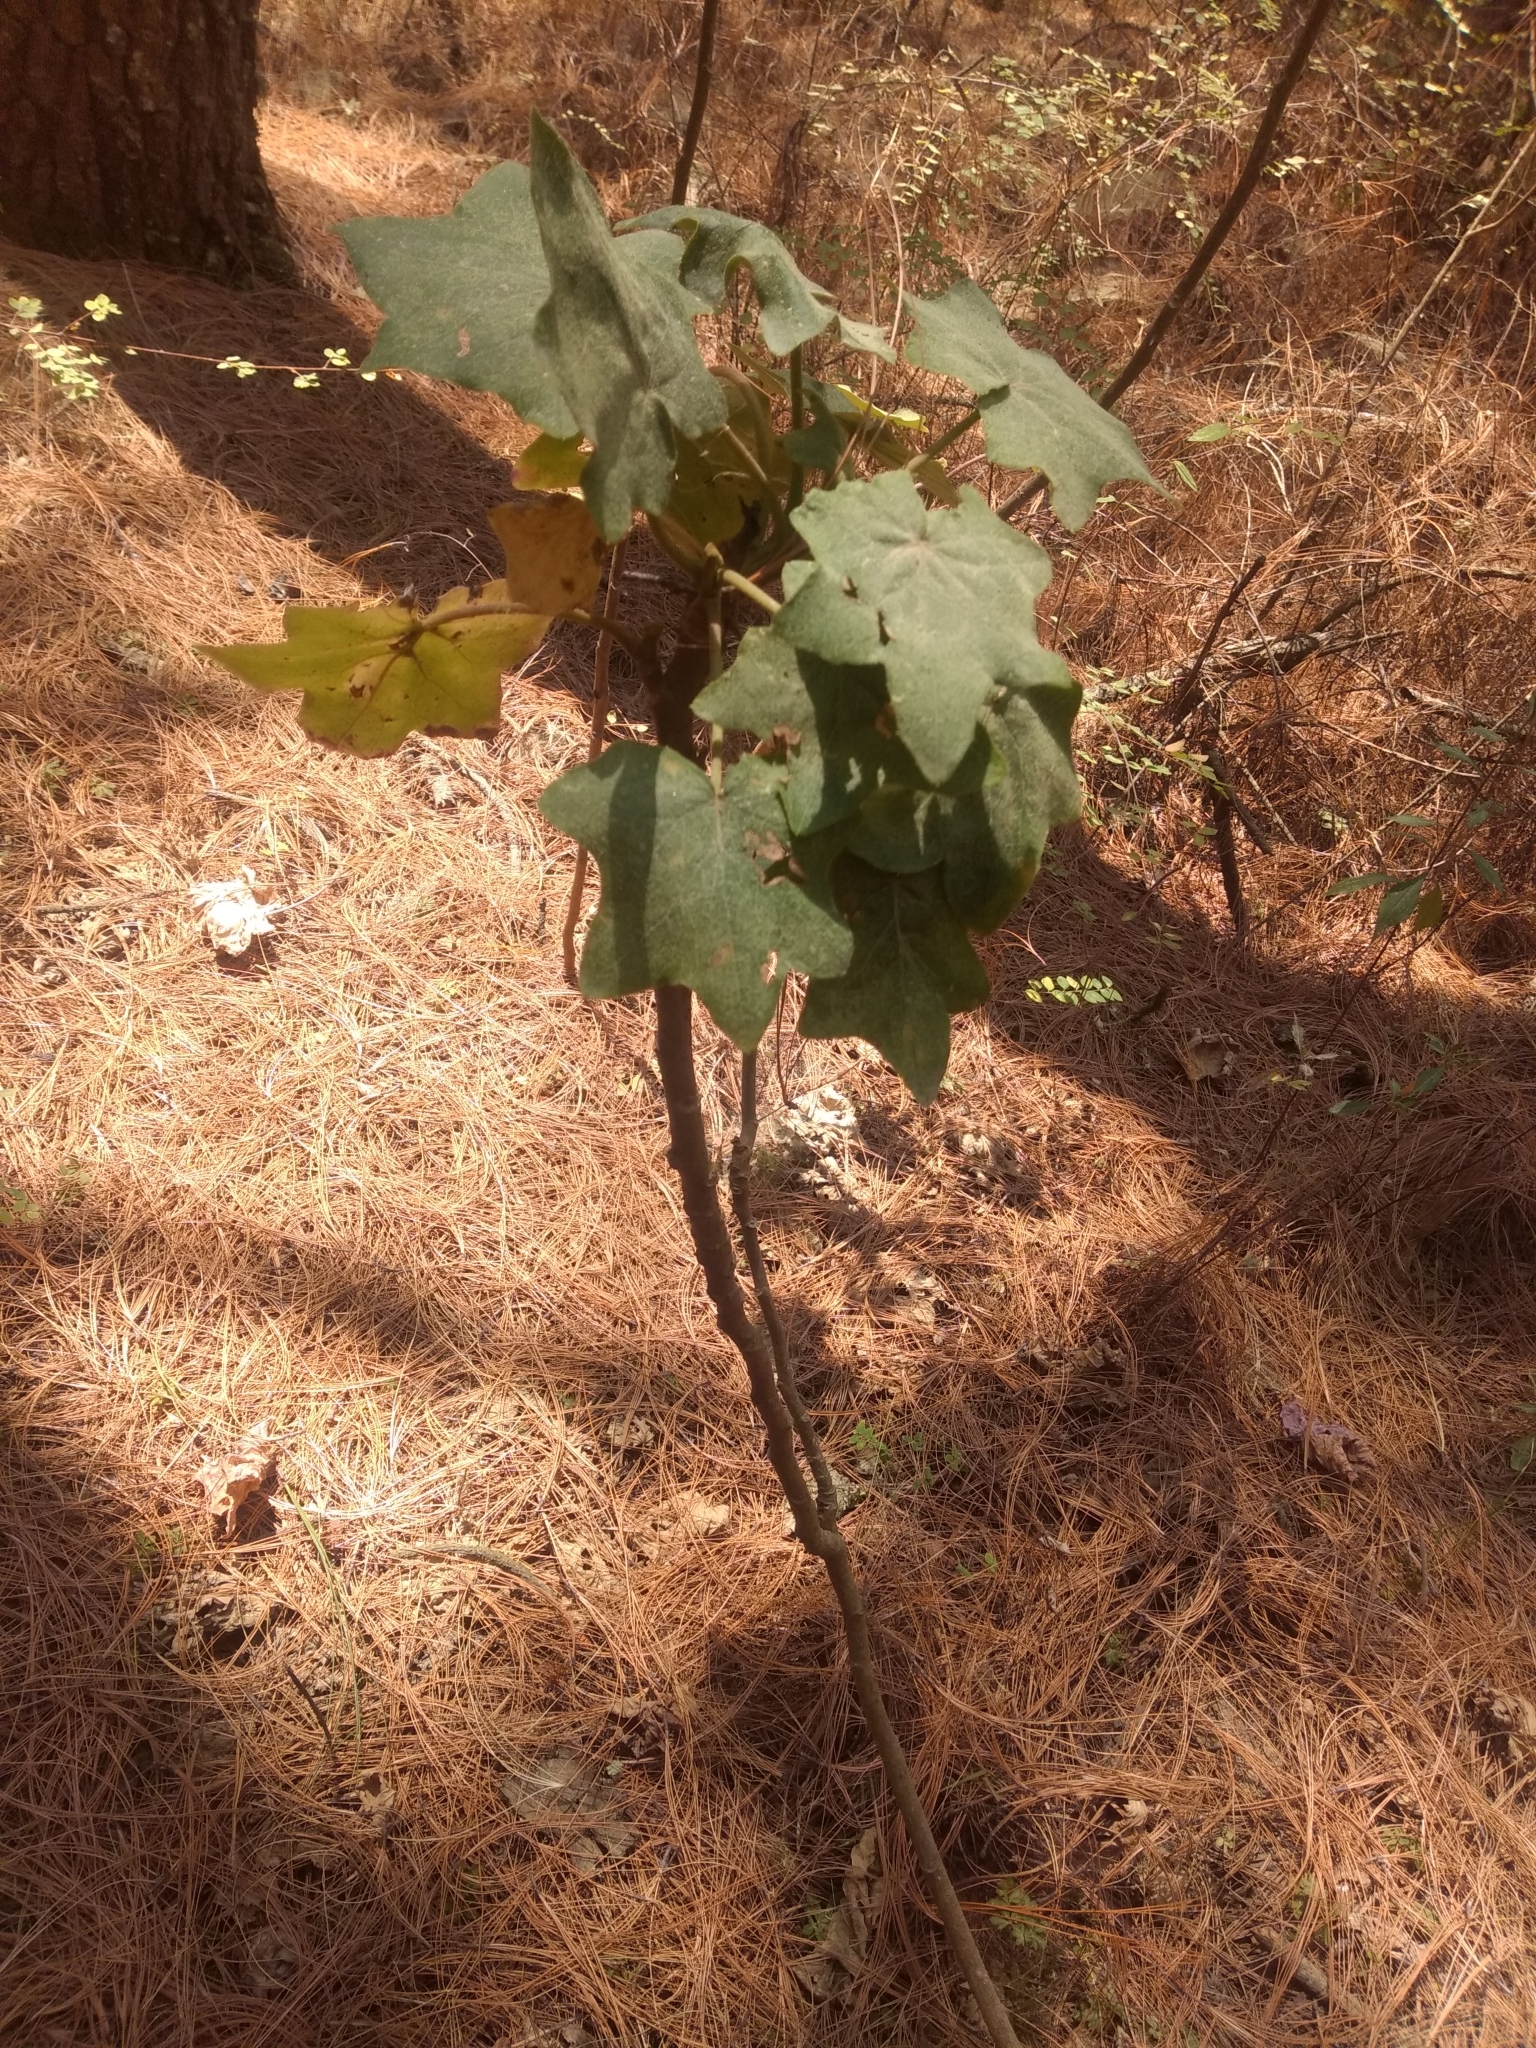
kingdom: Plantae
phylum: Tracheophyta
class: Magnoliopsida
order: Asterales
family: Asteraceae
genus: Roldana
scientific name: Roldana angulifolia
